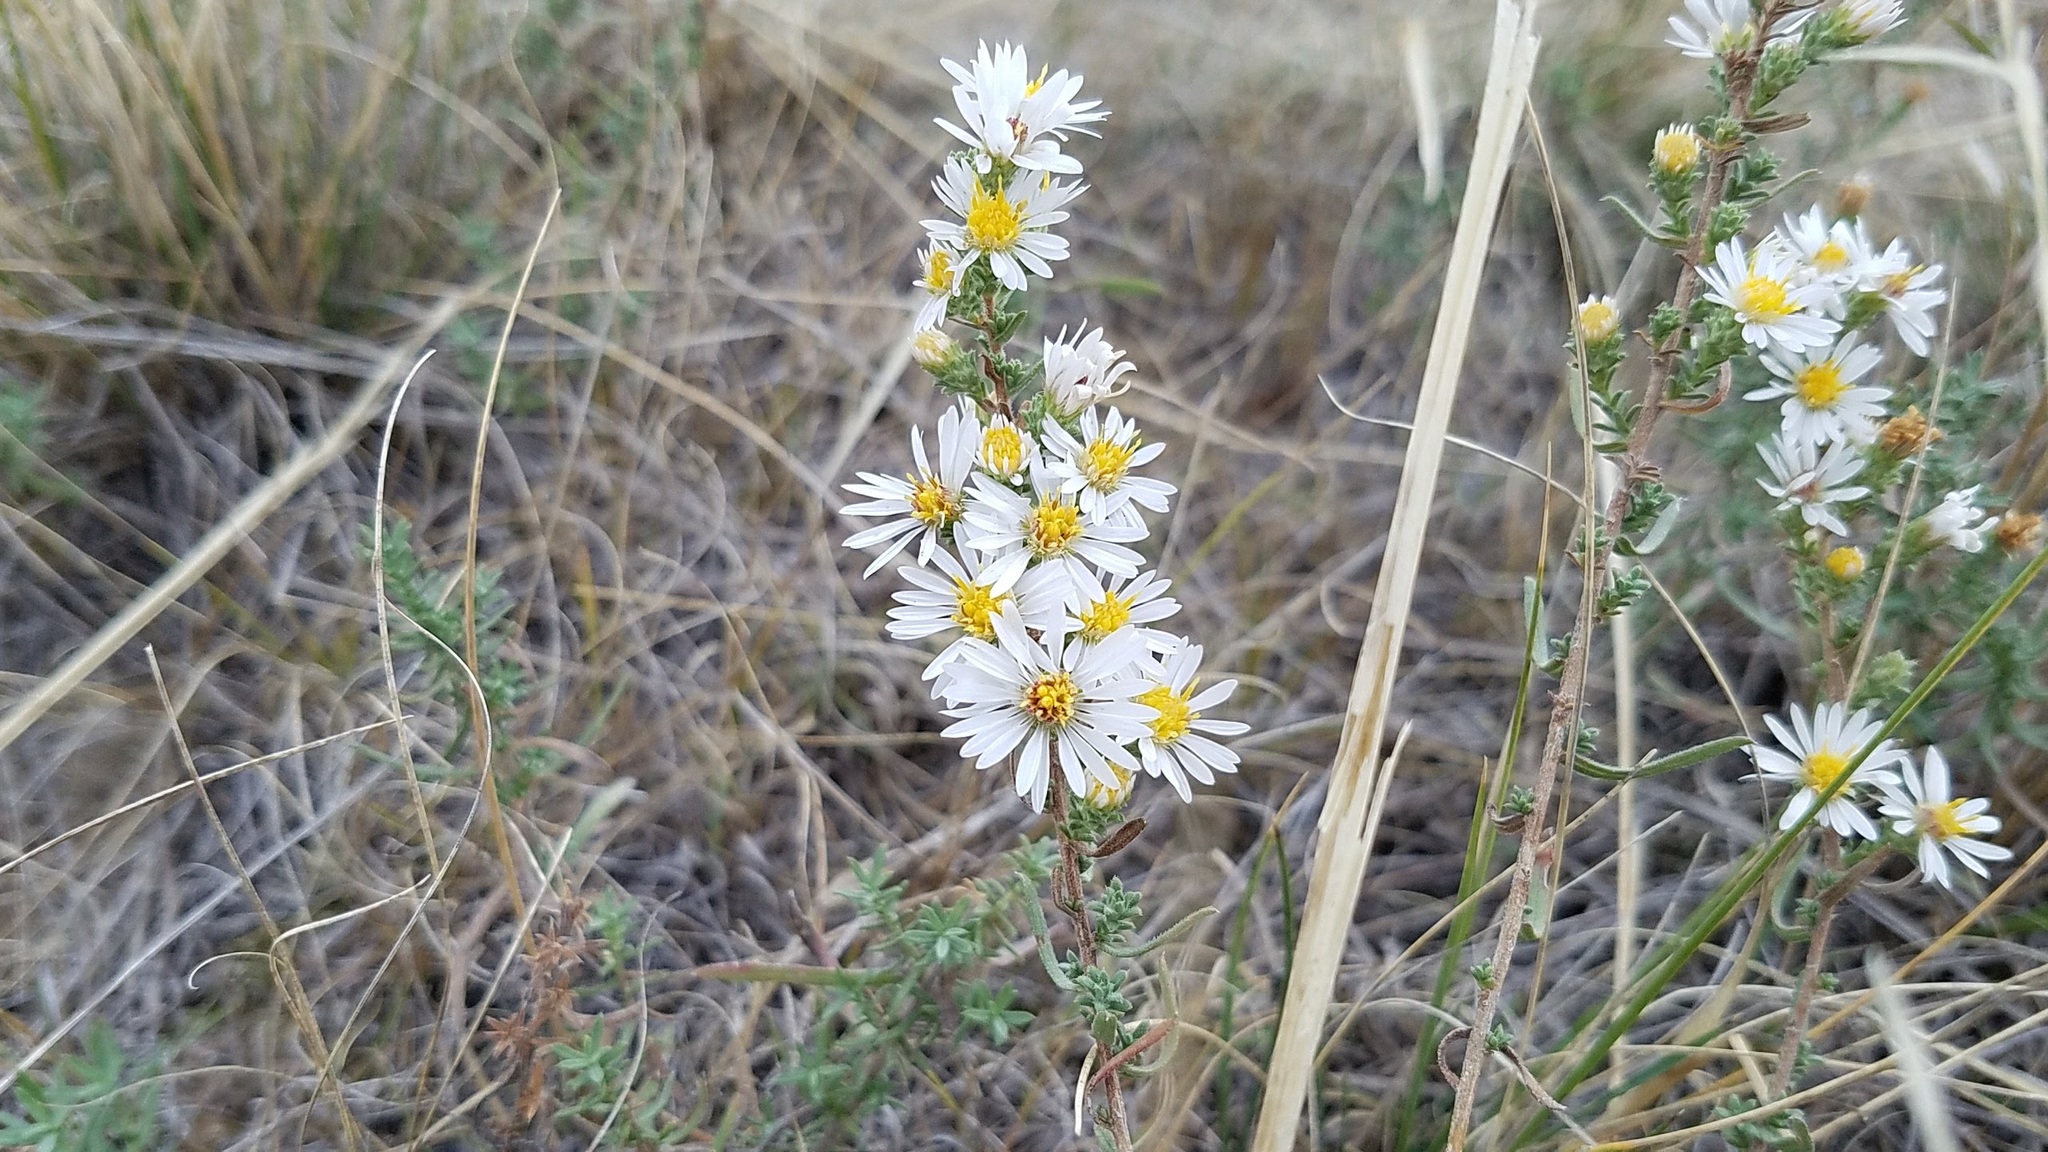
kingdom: Plantae
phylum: Tracheophyta
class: Magnoliopsida
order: Asterales
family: Asteraceae
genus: Symphyotrichum
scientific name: Symphyotrichum falcatum
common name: Creeping white prairie aster
